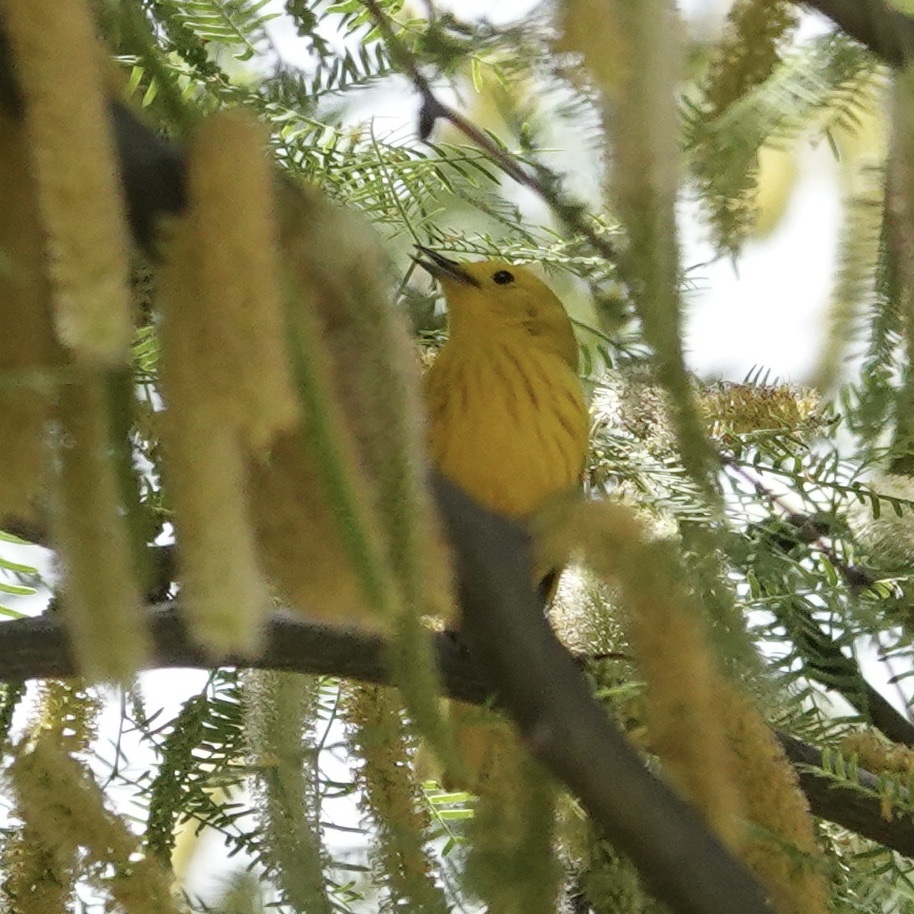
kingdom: Animalia
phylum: Chordata
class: Aves
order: Passeriformes
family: Parulidae
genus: Setophaga
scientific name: Setophaga petechia
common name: Yellow warbler
